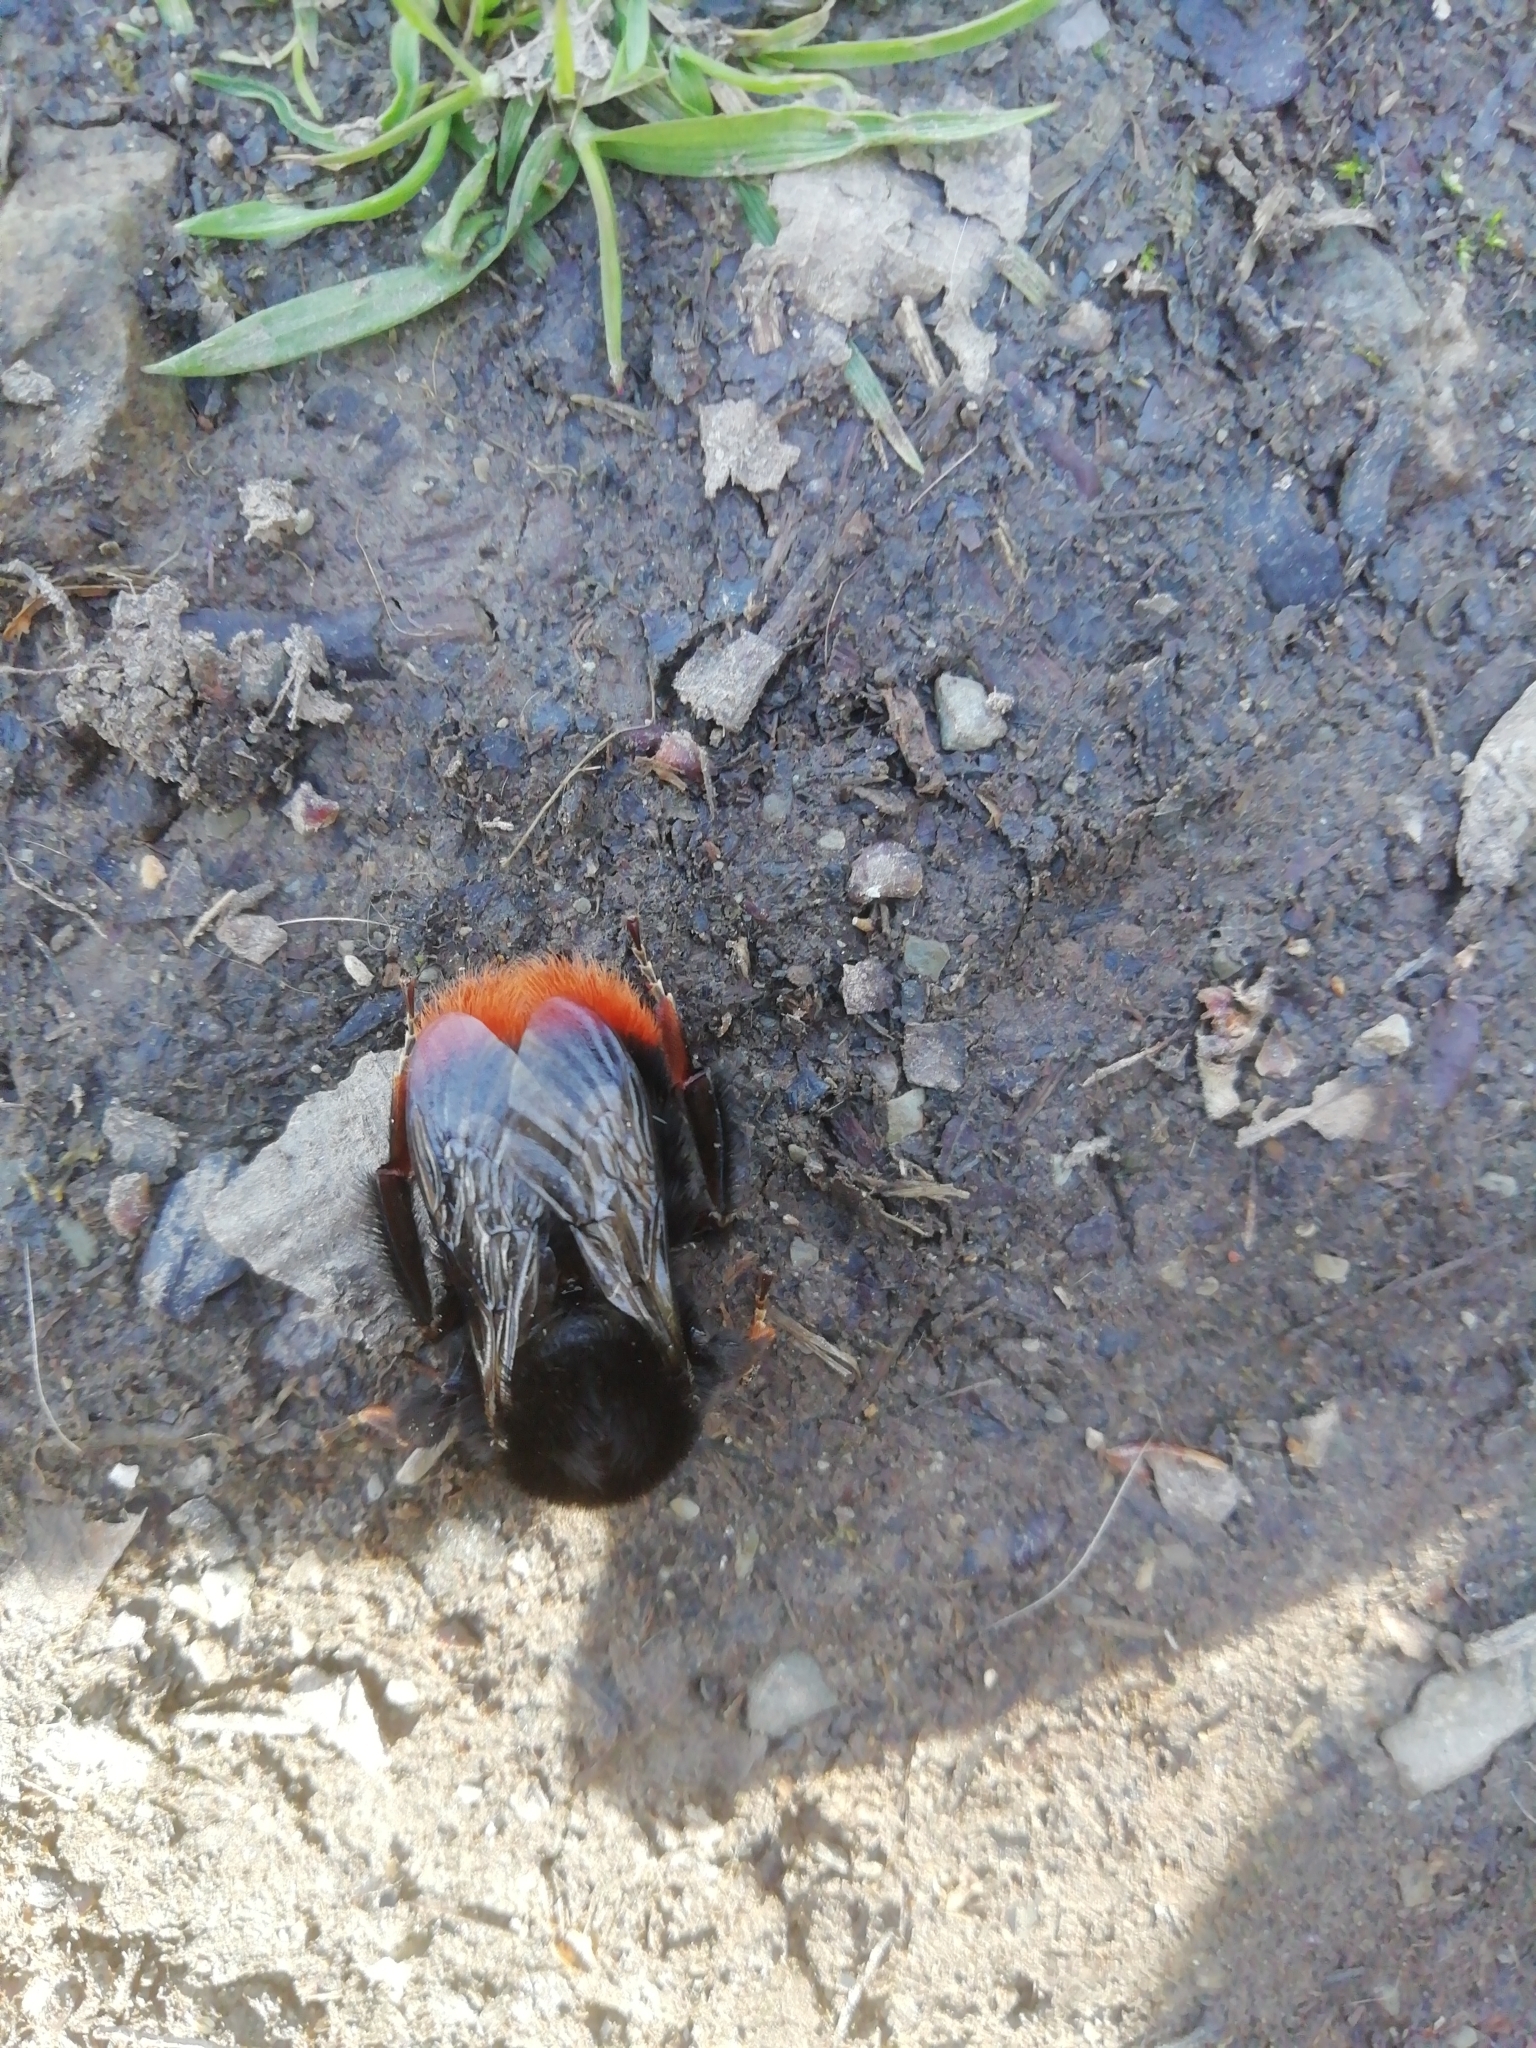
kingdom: Animalia
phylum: Arthropoda
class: Insecta
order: Hymenoptera
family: Apidae
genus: Bombus
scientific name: Bombus lapidarius
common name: Large red-tailed humble-bee
